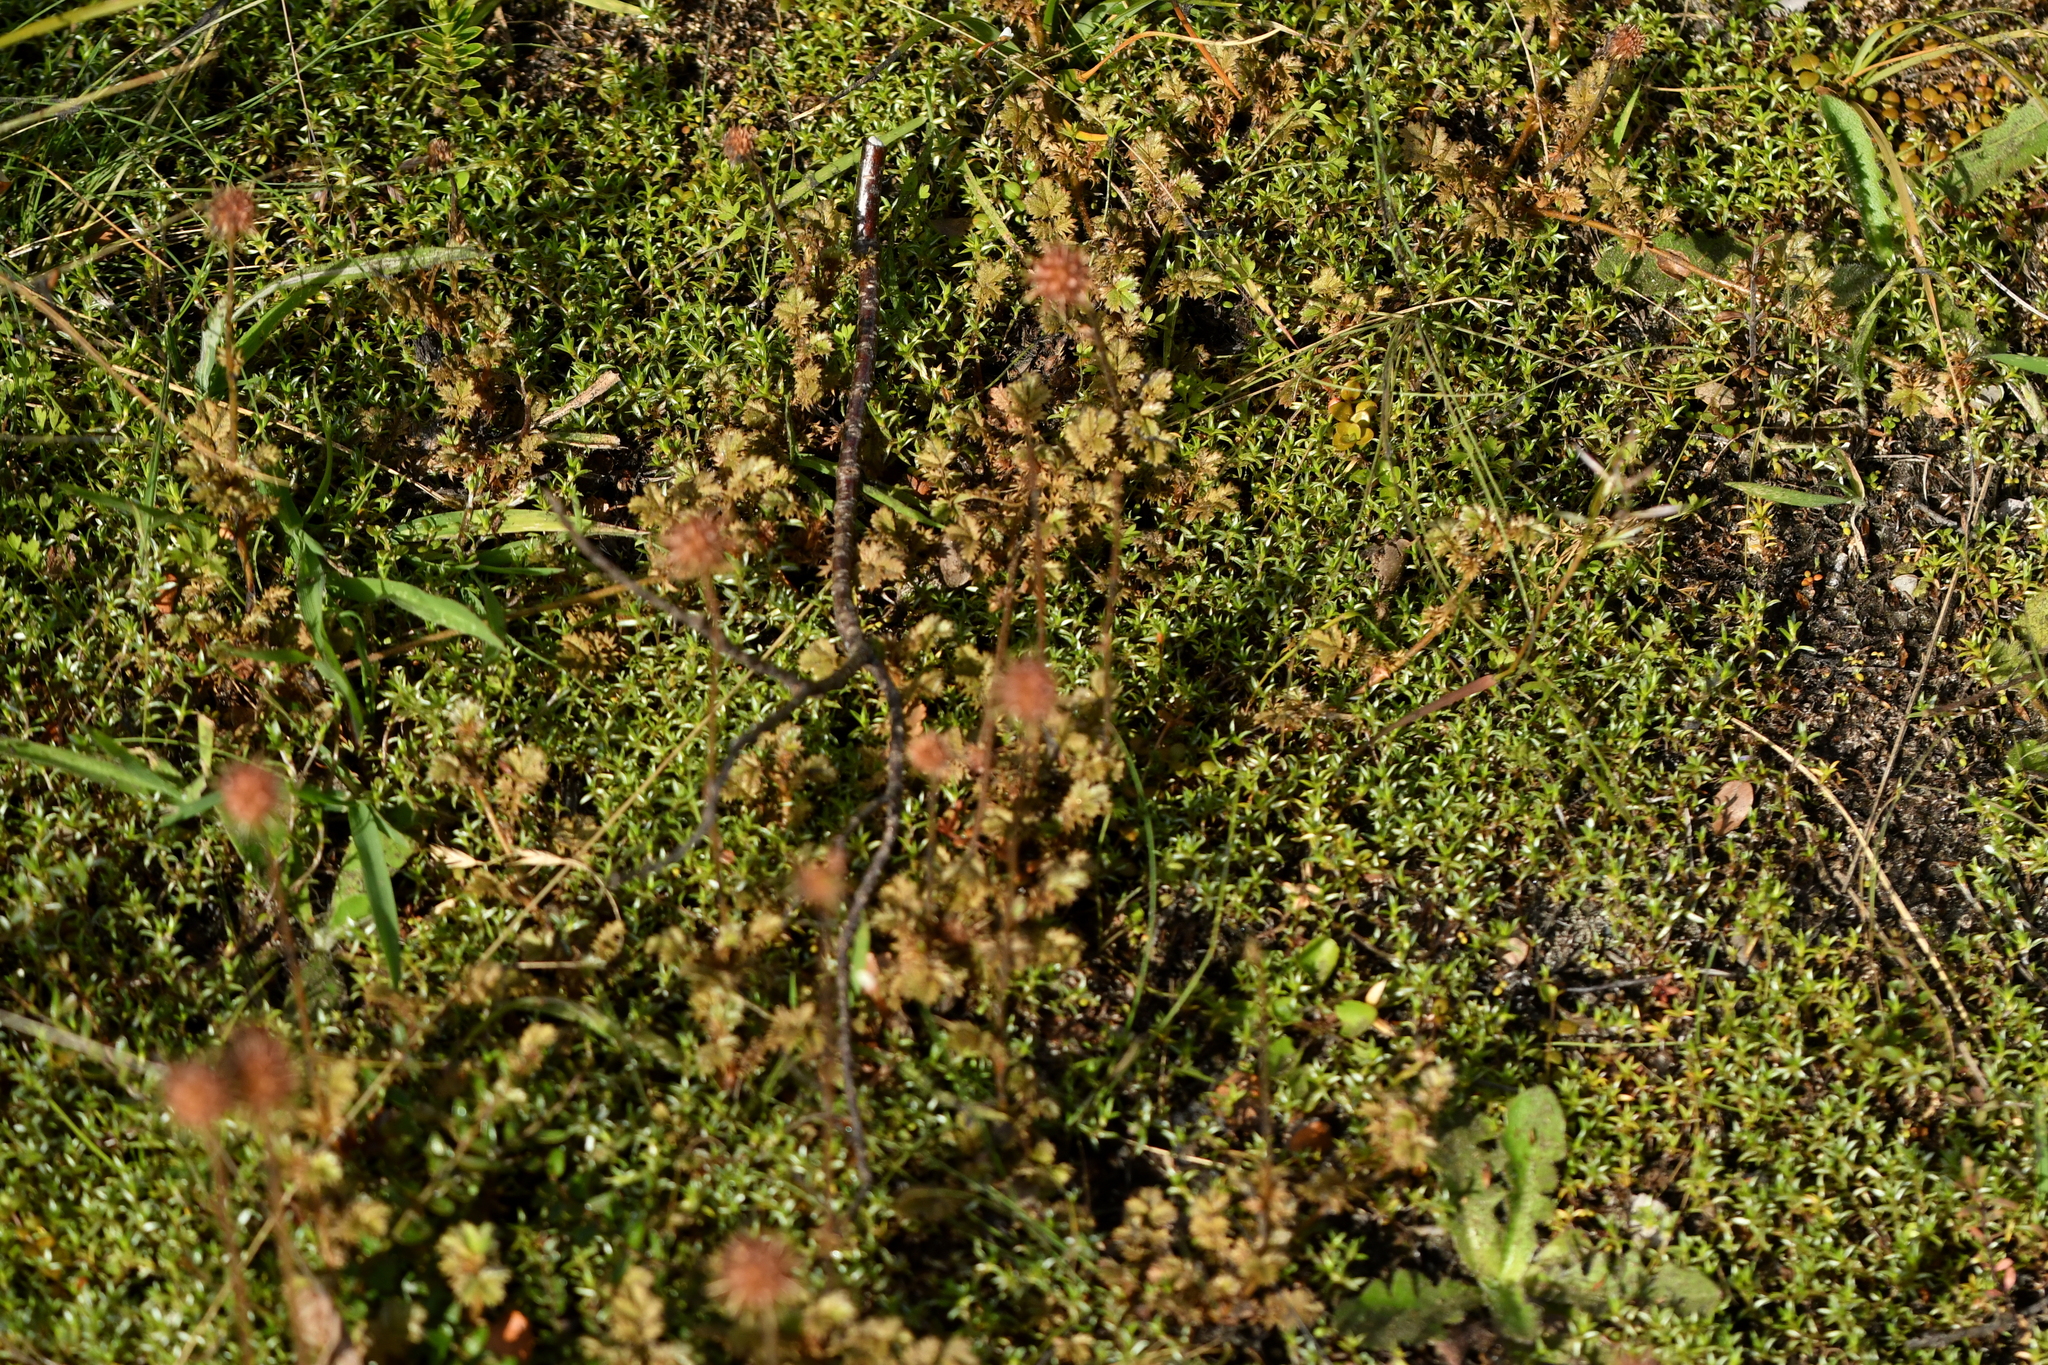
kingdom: Plantae
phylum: Tracheophyta
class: Magnoliopsida
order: Rosales
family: Rosaceae
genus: Acaena
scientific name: Acaena anserinifolia
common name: Bronze pirri-pirri-bur
